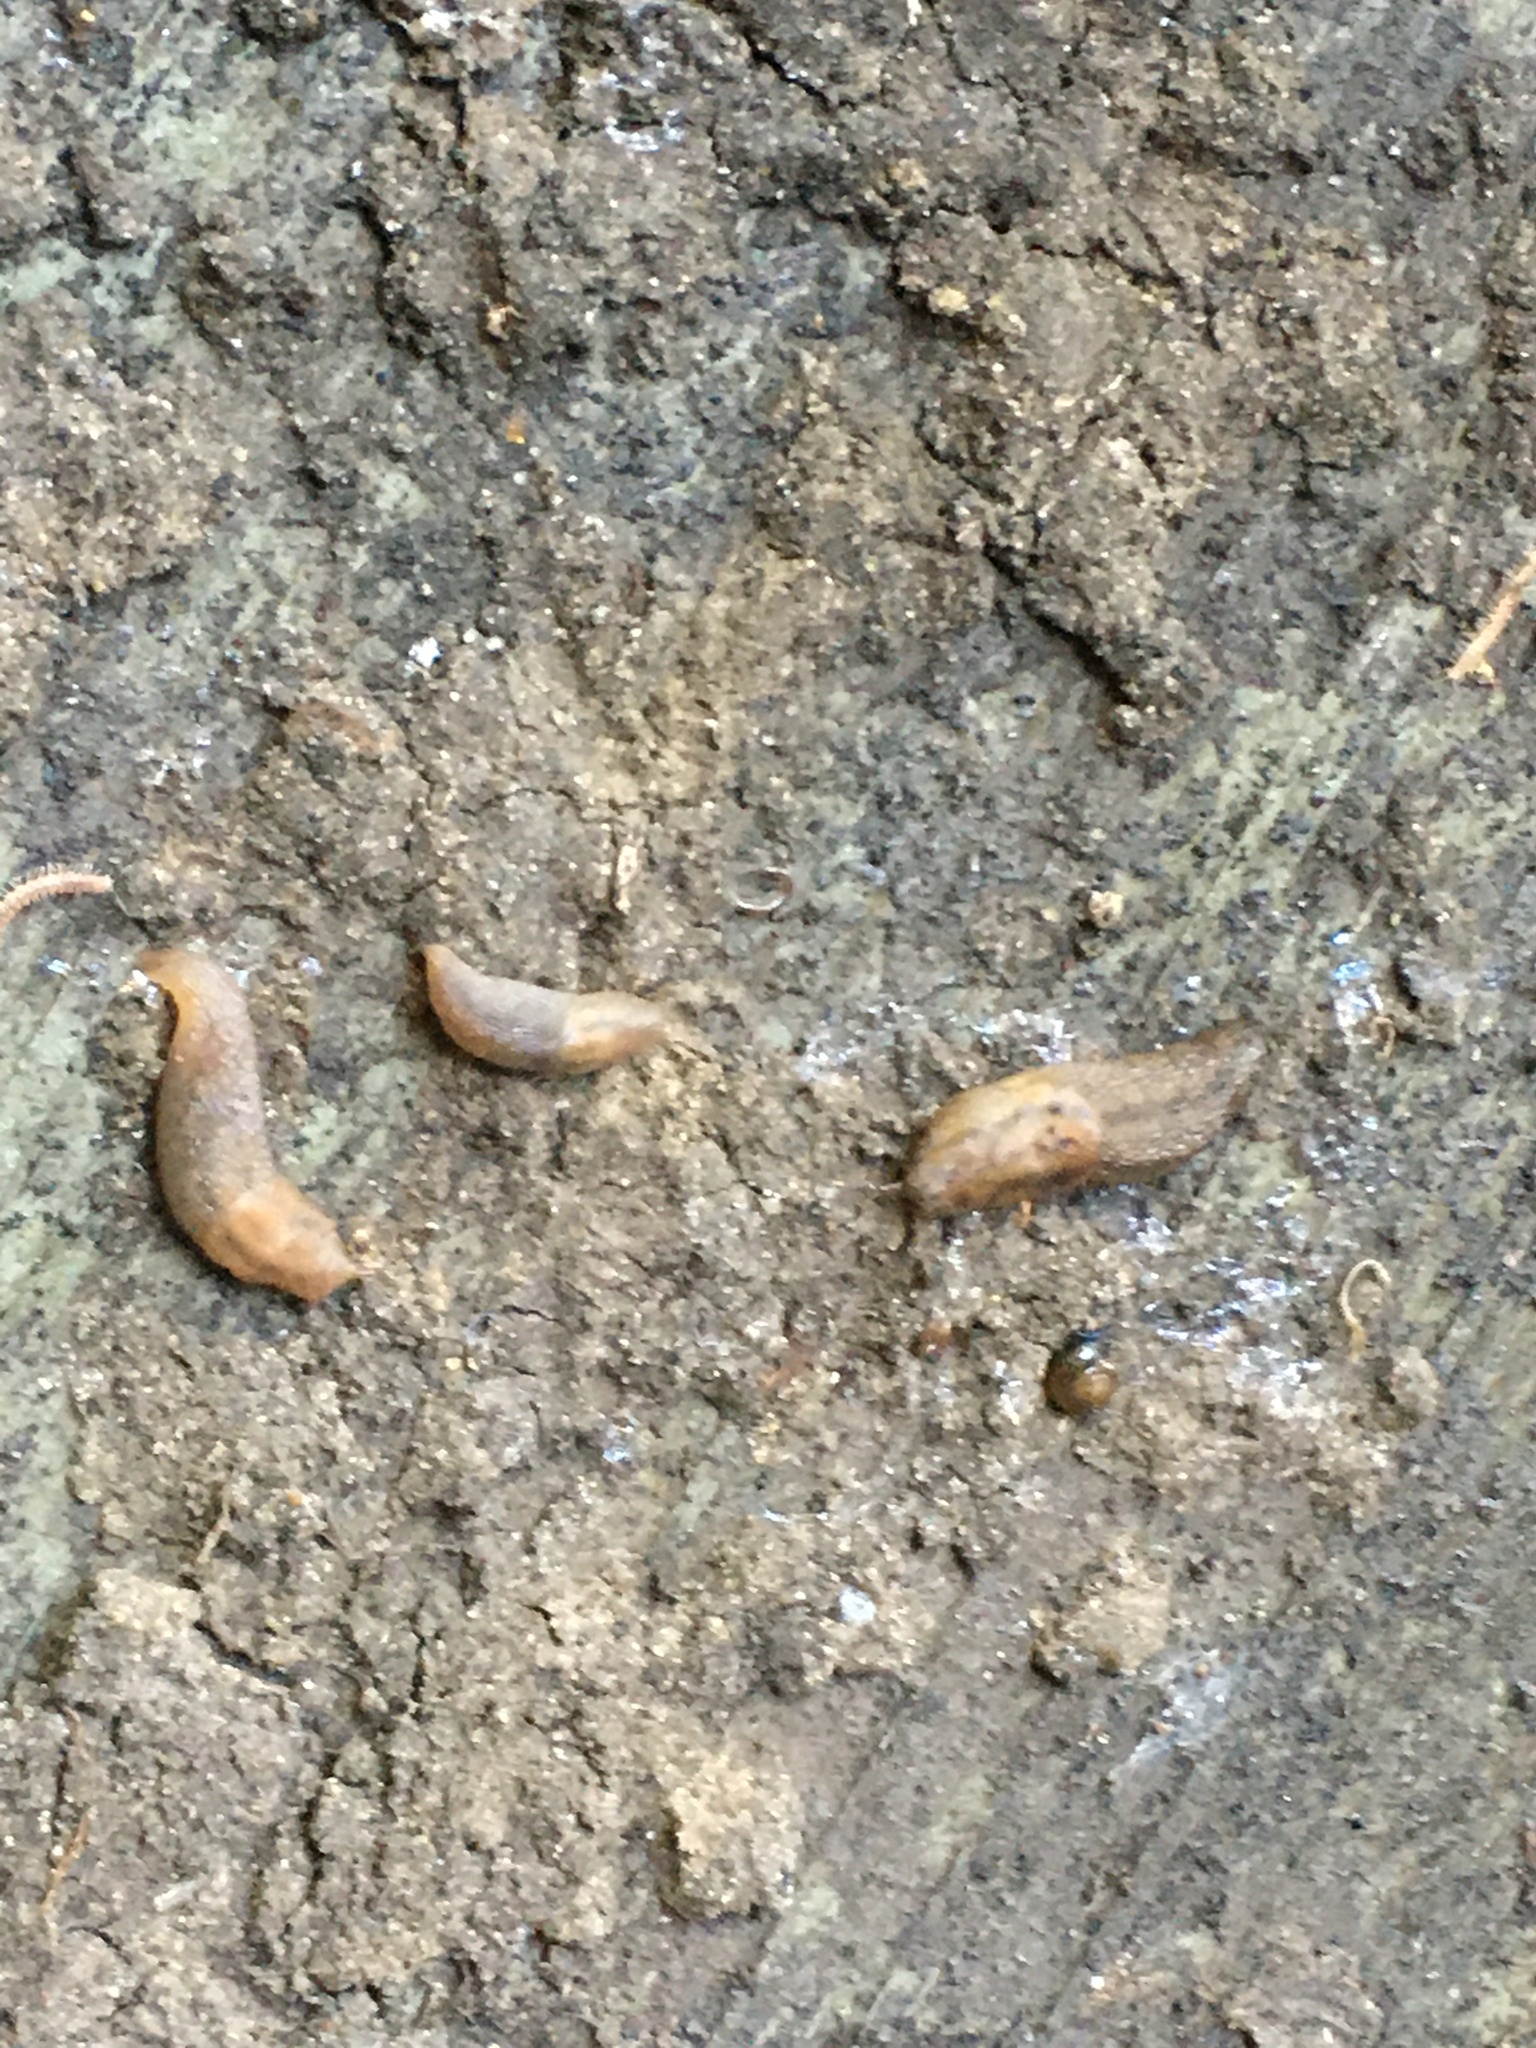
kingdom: Animalia
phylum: Mollusca
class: Gastropoda
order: Stylommatophora
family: Limacidae
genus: Ambigolimax
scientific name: Ambigolimax
